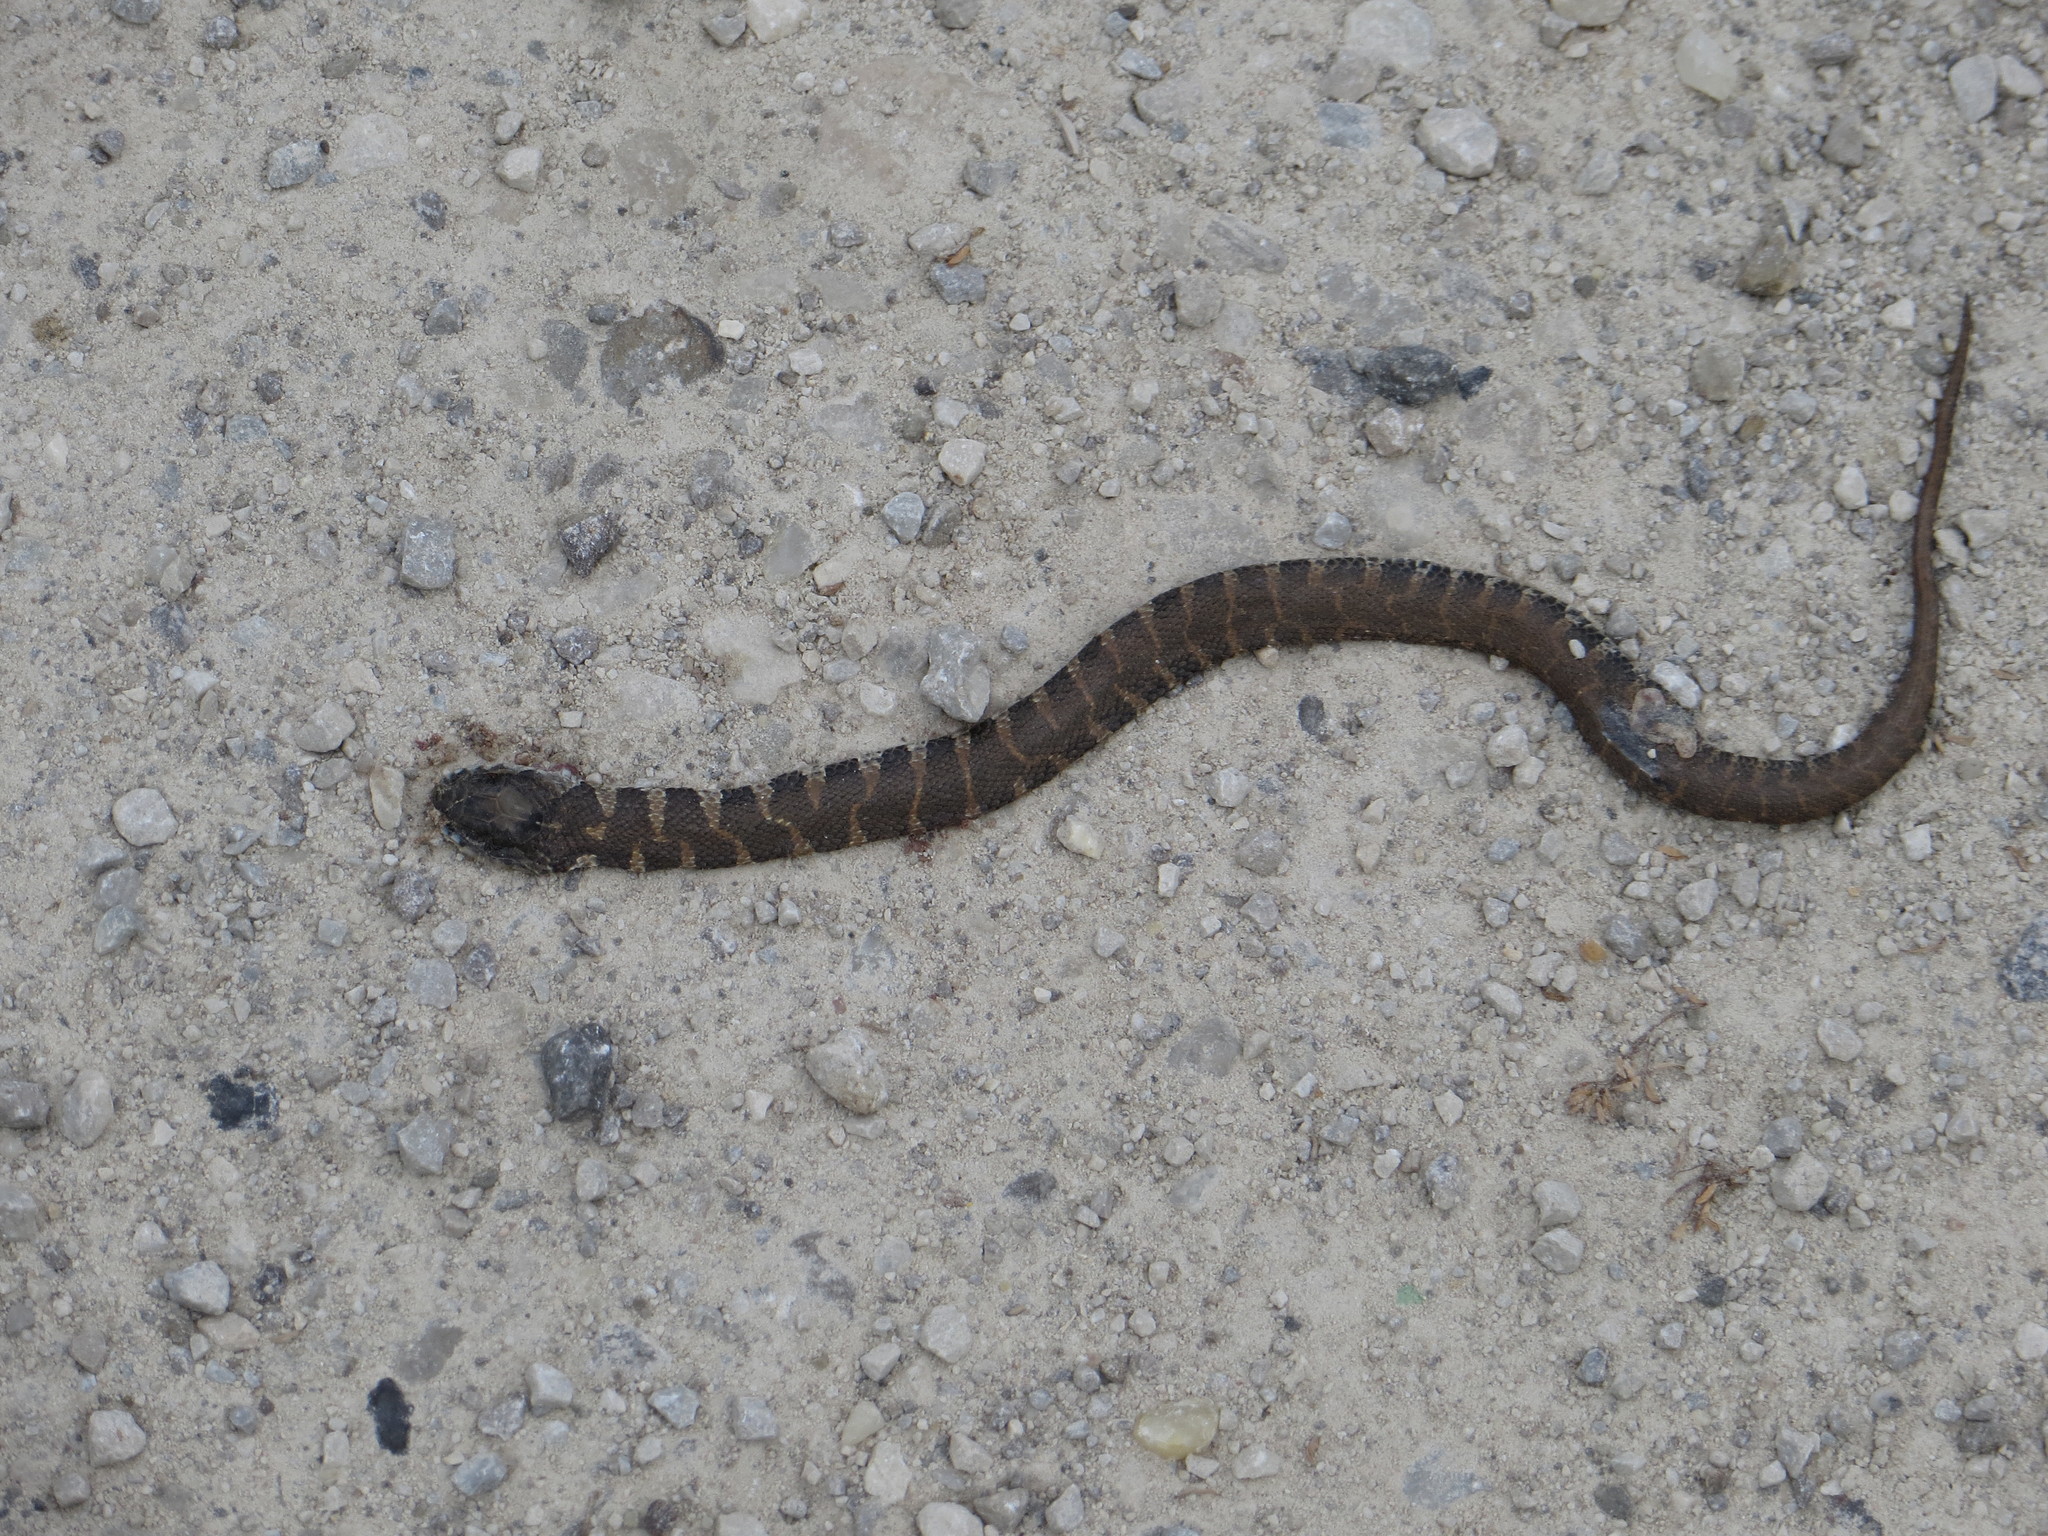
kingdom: Animalia
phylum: Chordata
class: Squamata
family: Colubridae
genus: Nerodia
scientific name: Nerodia sipedon
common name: Northern water snake
